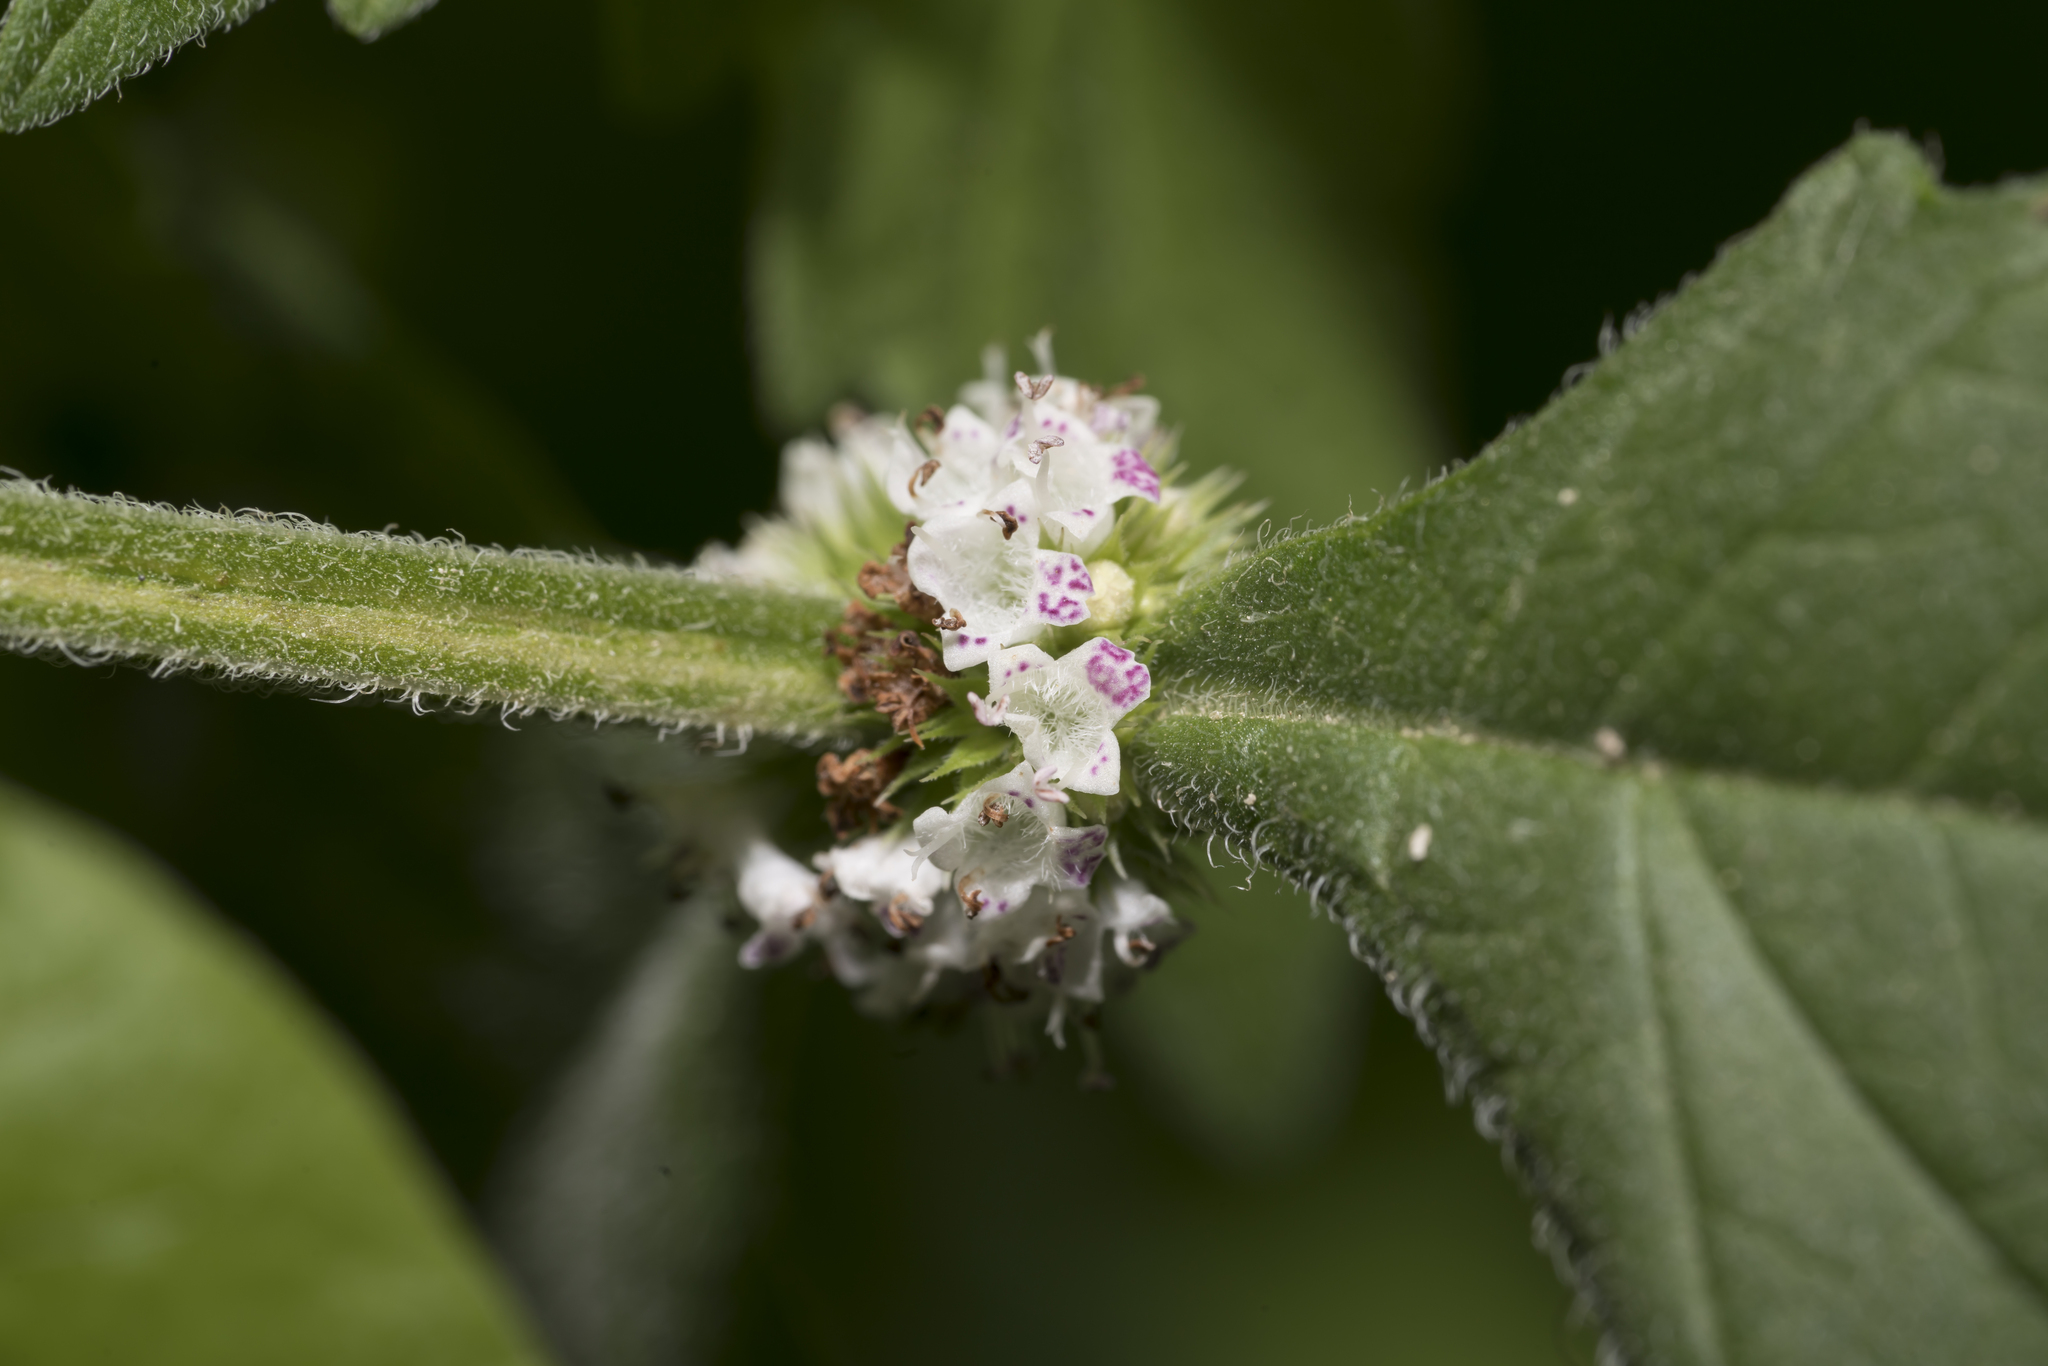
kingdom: Plantae
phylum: Tracheophyta
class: Magnoliopsida
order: Lamiales
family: Lamiaceae
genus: Lycopus
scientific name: Lycopus europaeus
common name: European bugleweed
